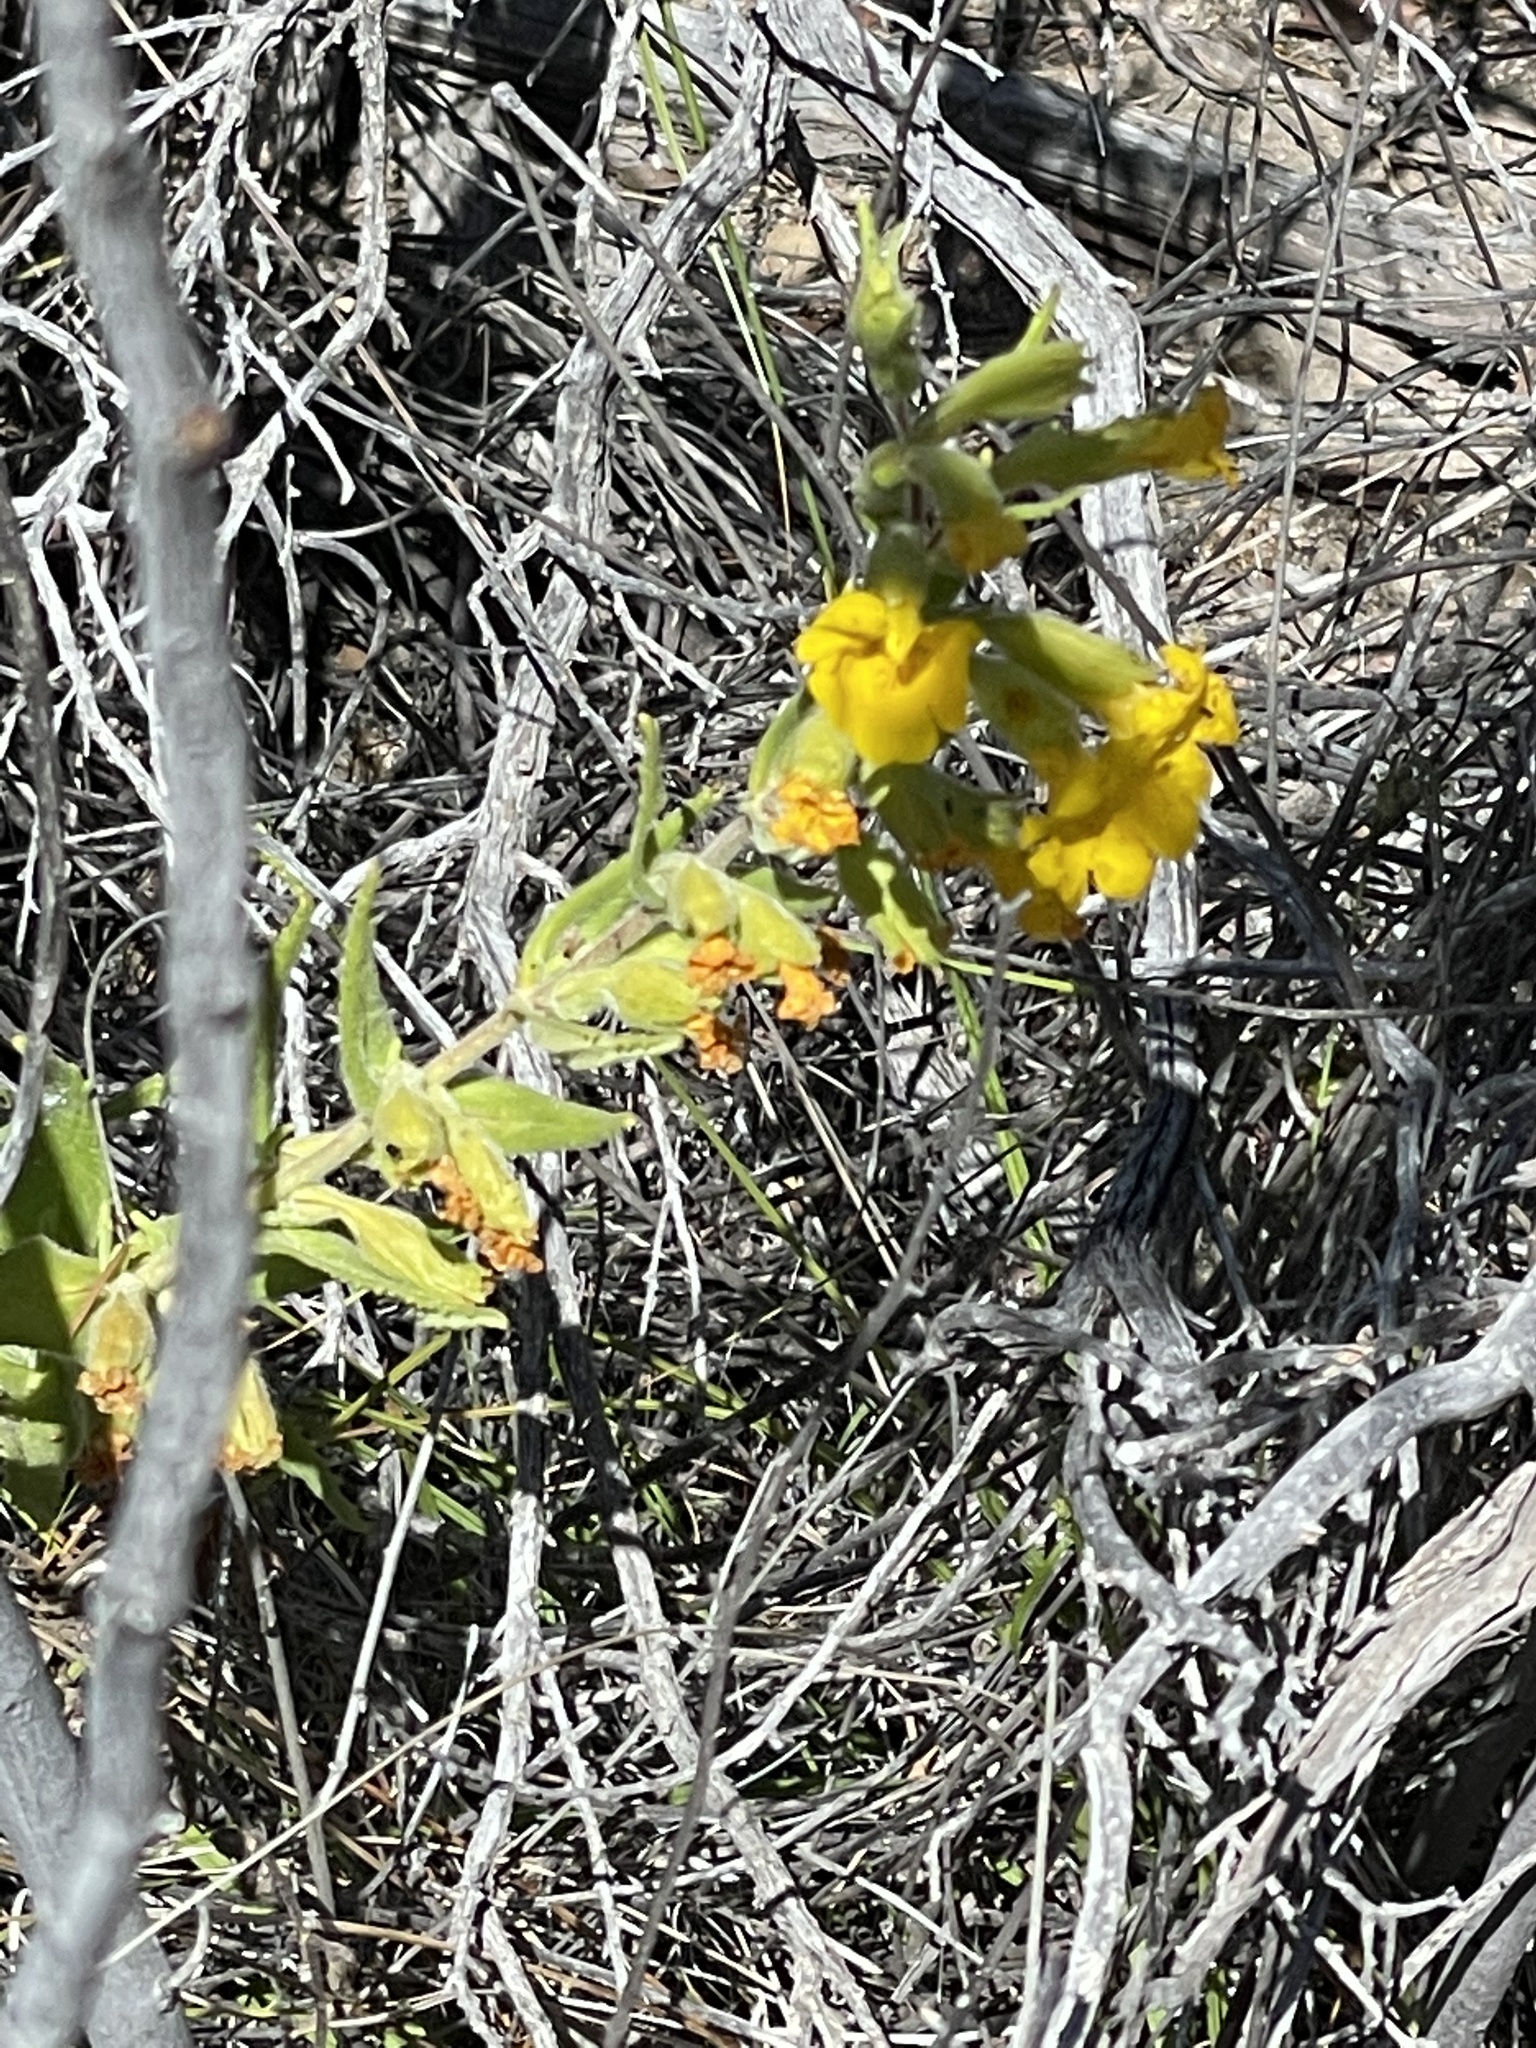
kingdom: Plantae
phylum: Tracheophyta
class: Magnoliopsida
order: Lamiales
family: Phrymaceae
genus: Diplacus
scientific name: Diplacus clevelandii
